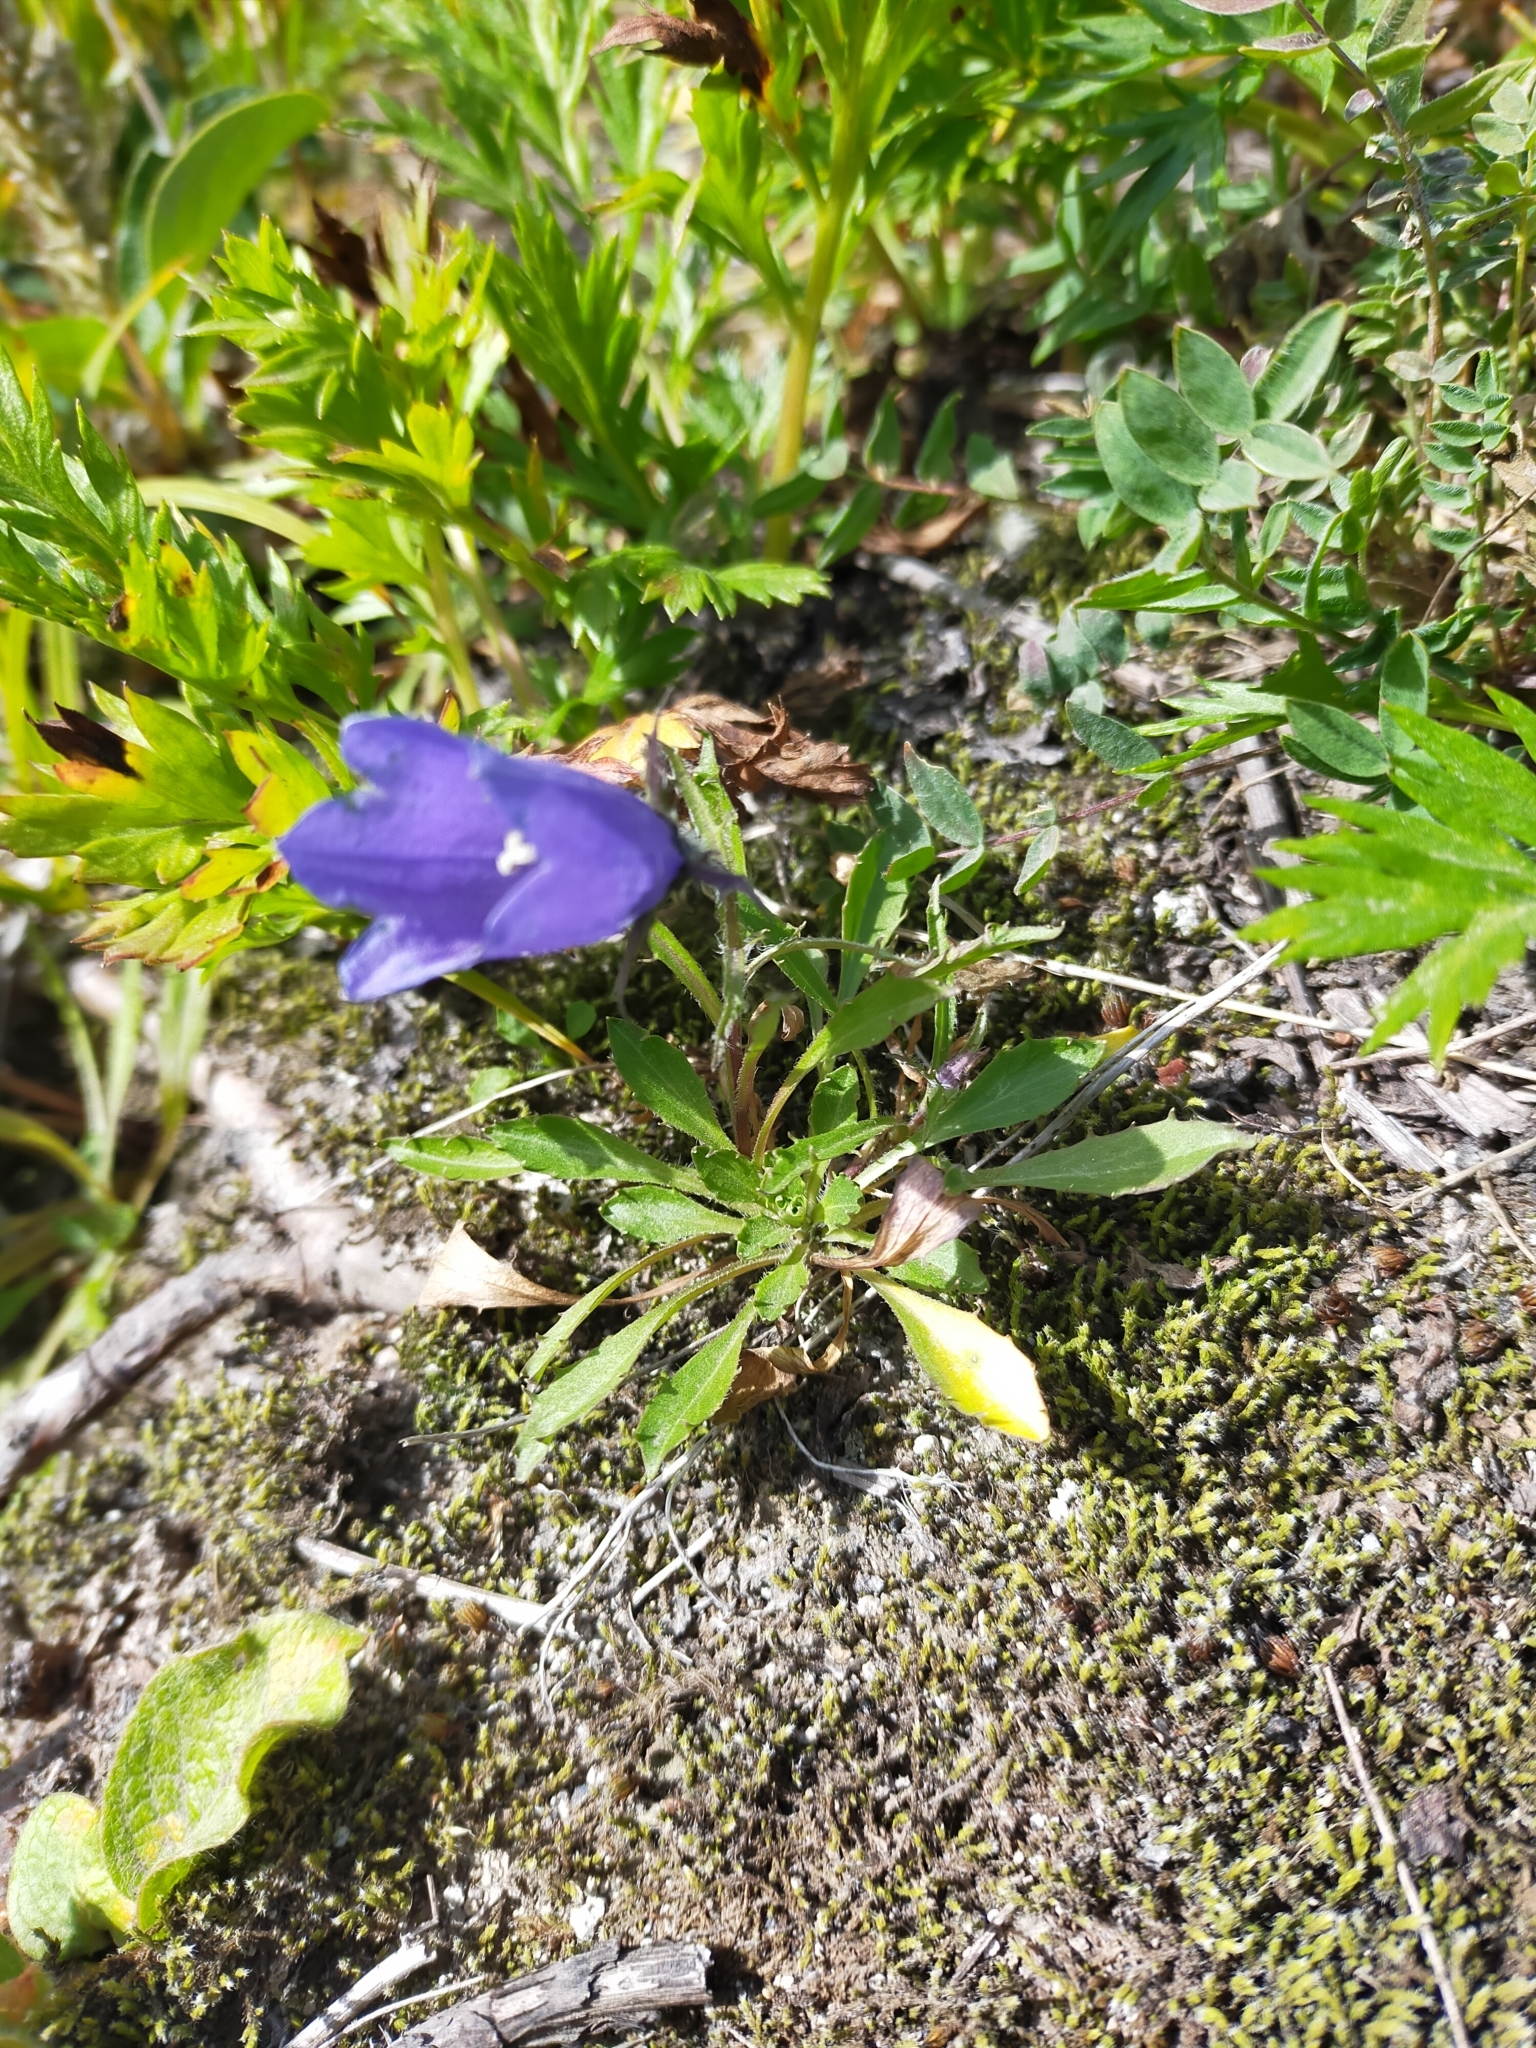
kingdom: Plantae
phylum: Tracheophyta
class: Magnoliopsida
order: Asterales
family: Campanulaceae
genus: Campanula
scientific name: Campanula lasiocarpa
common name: Mountain harebell
